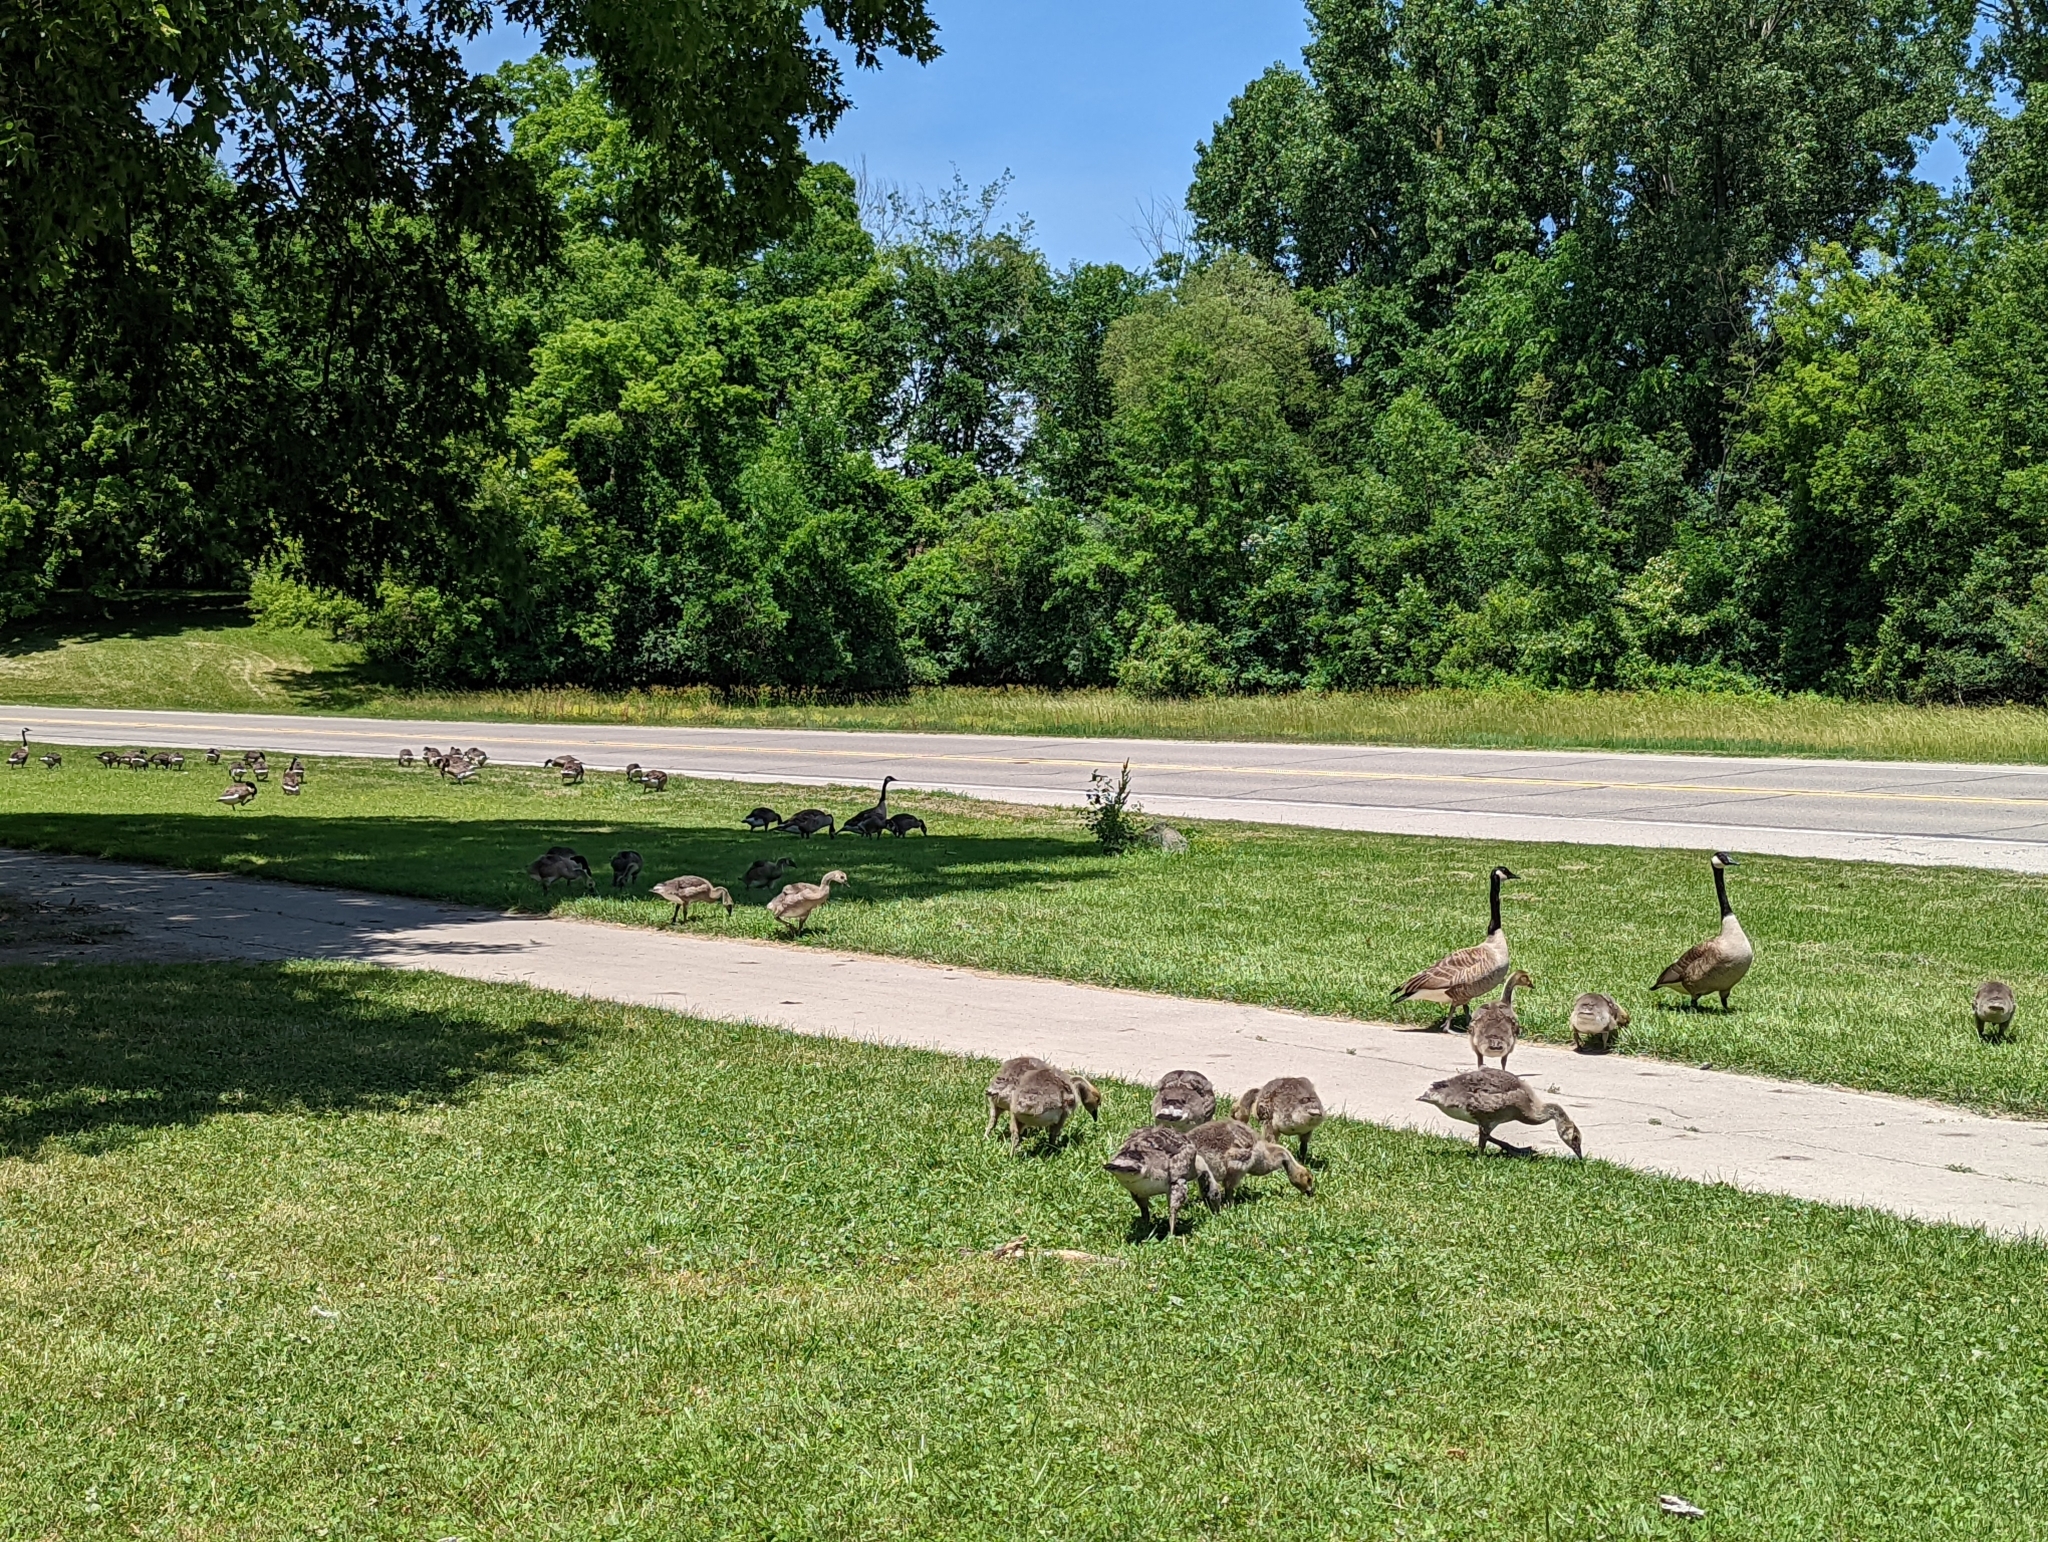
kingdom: Animalia
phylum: Chordata
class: Aves
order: Anseriformes
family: Anatidae
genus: Branta
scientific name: Branta canadensis
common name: Canada goose
